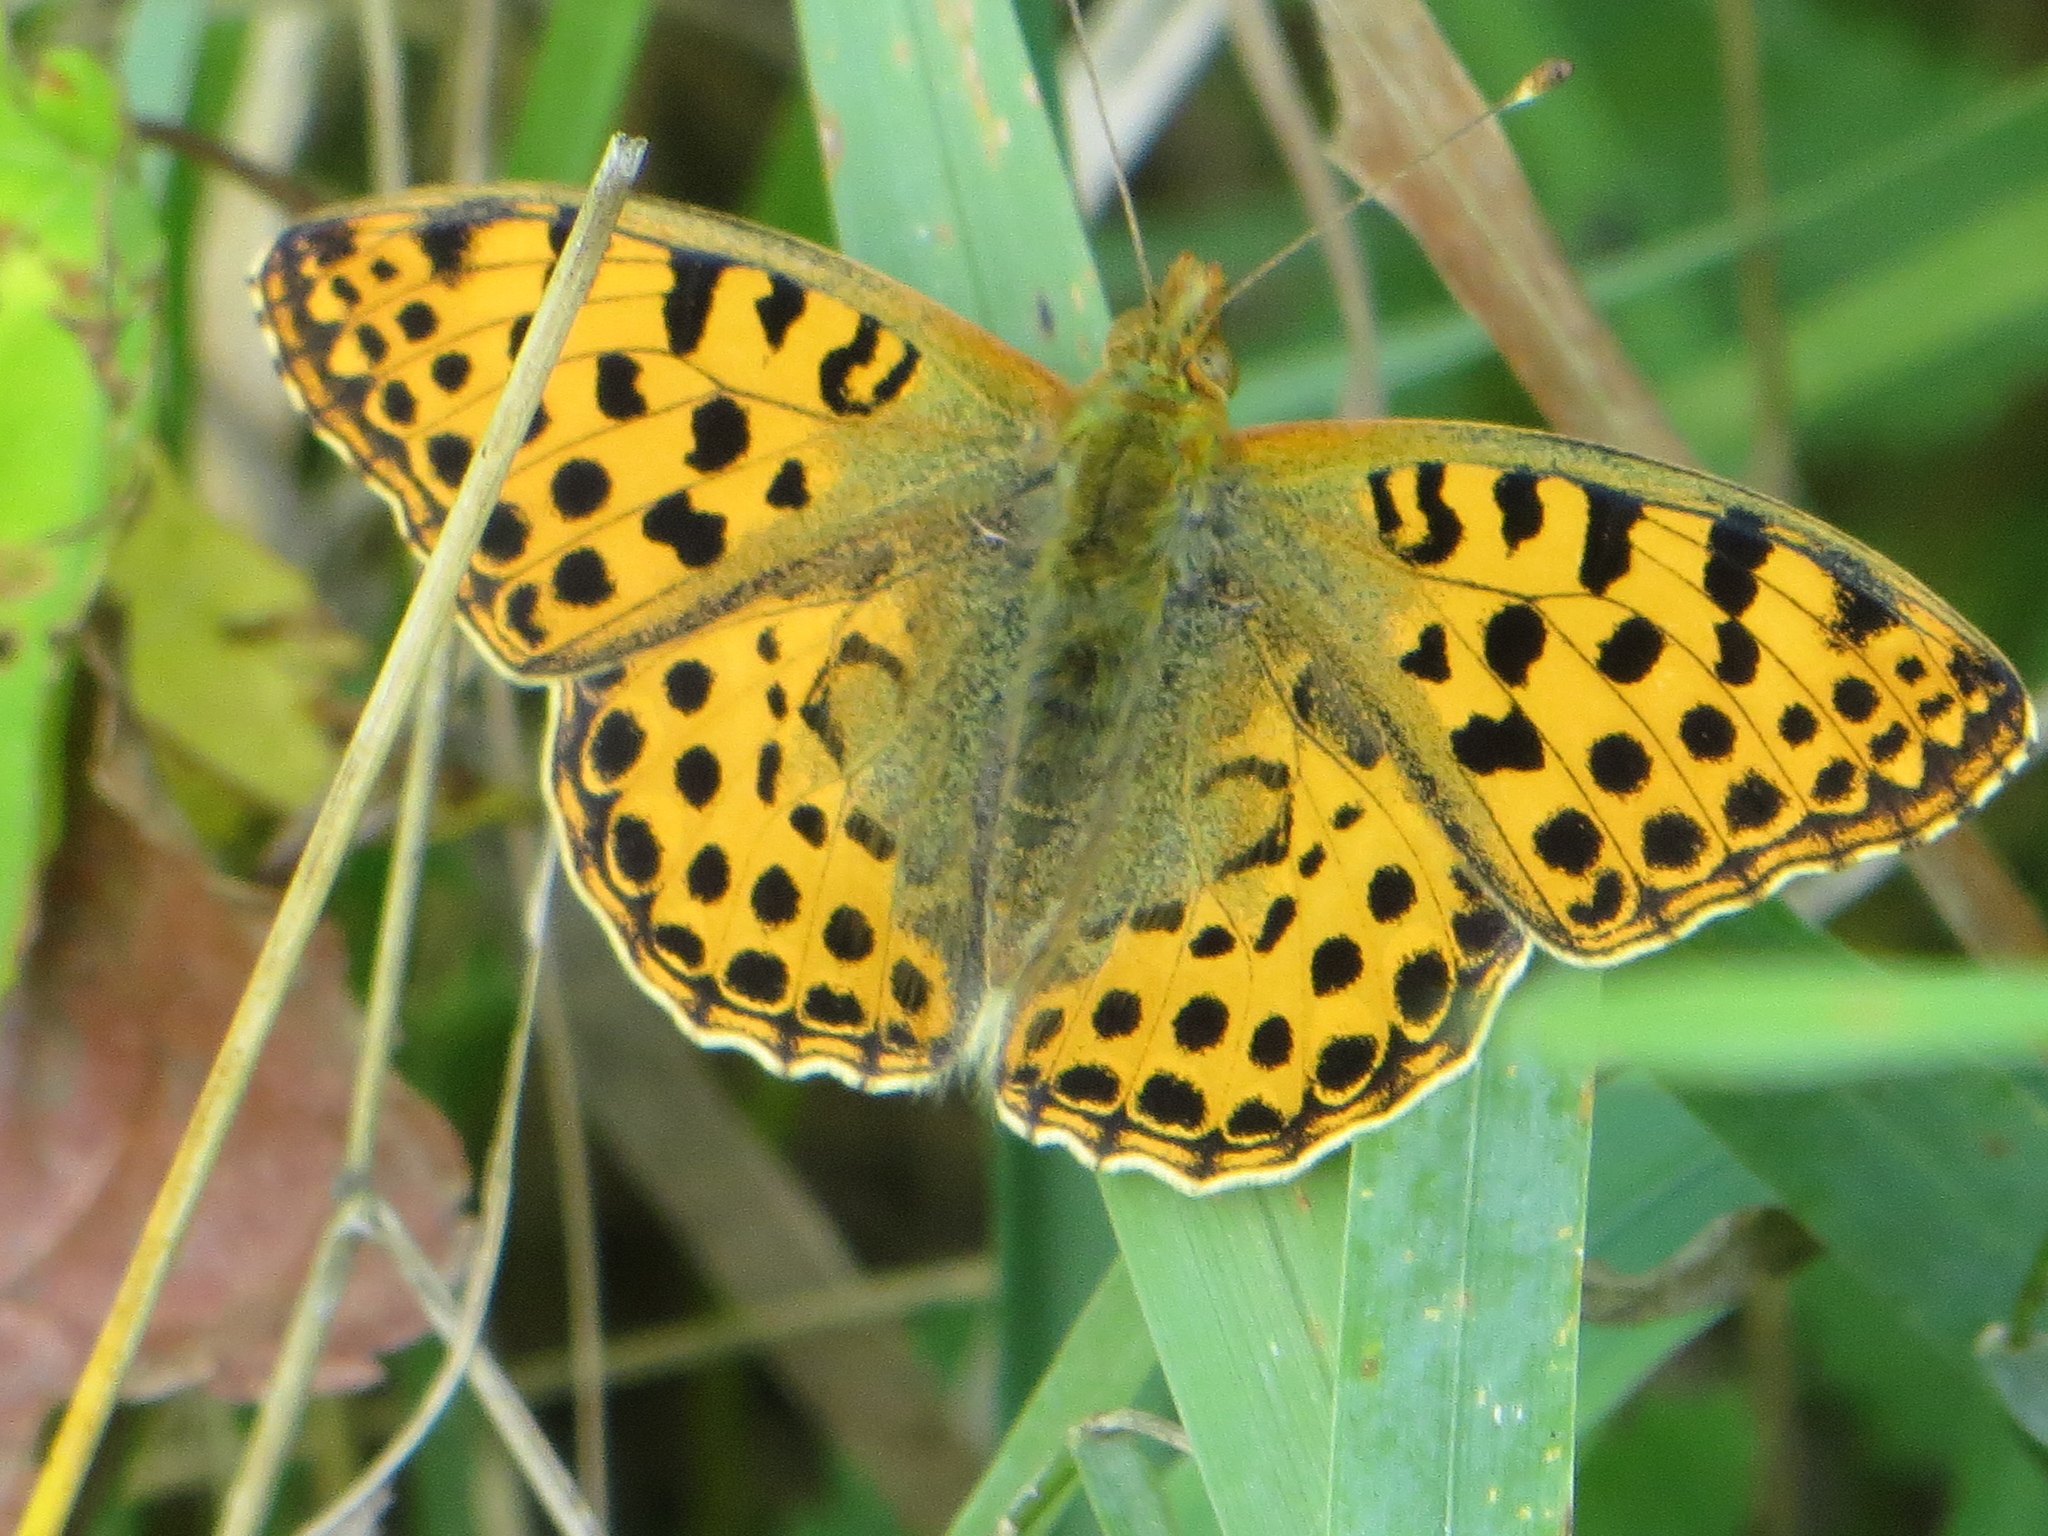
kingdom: Animalia
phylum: Arthropoda
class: Insecta
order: Lepidoptera
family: Nymphalidae
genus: Issoria
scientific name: Issoria lathonia
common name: Queen of spain fritillary
